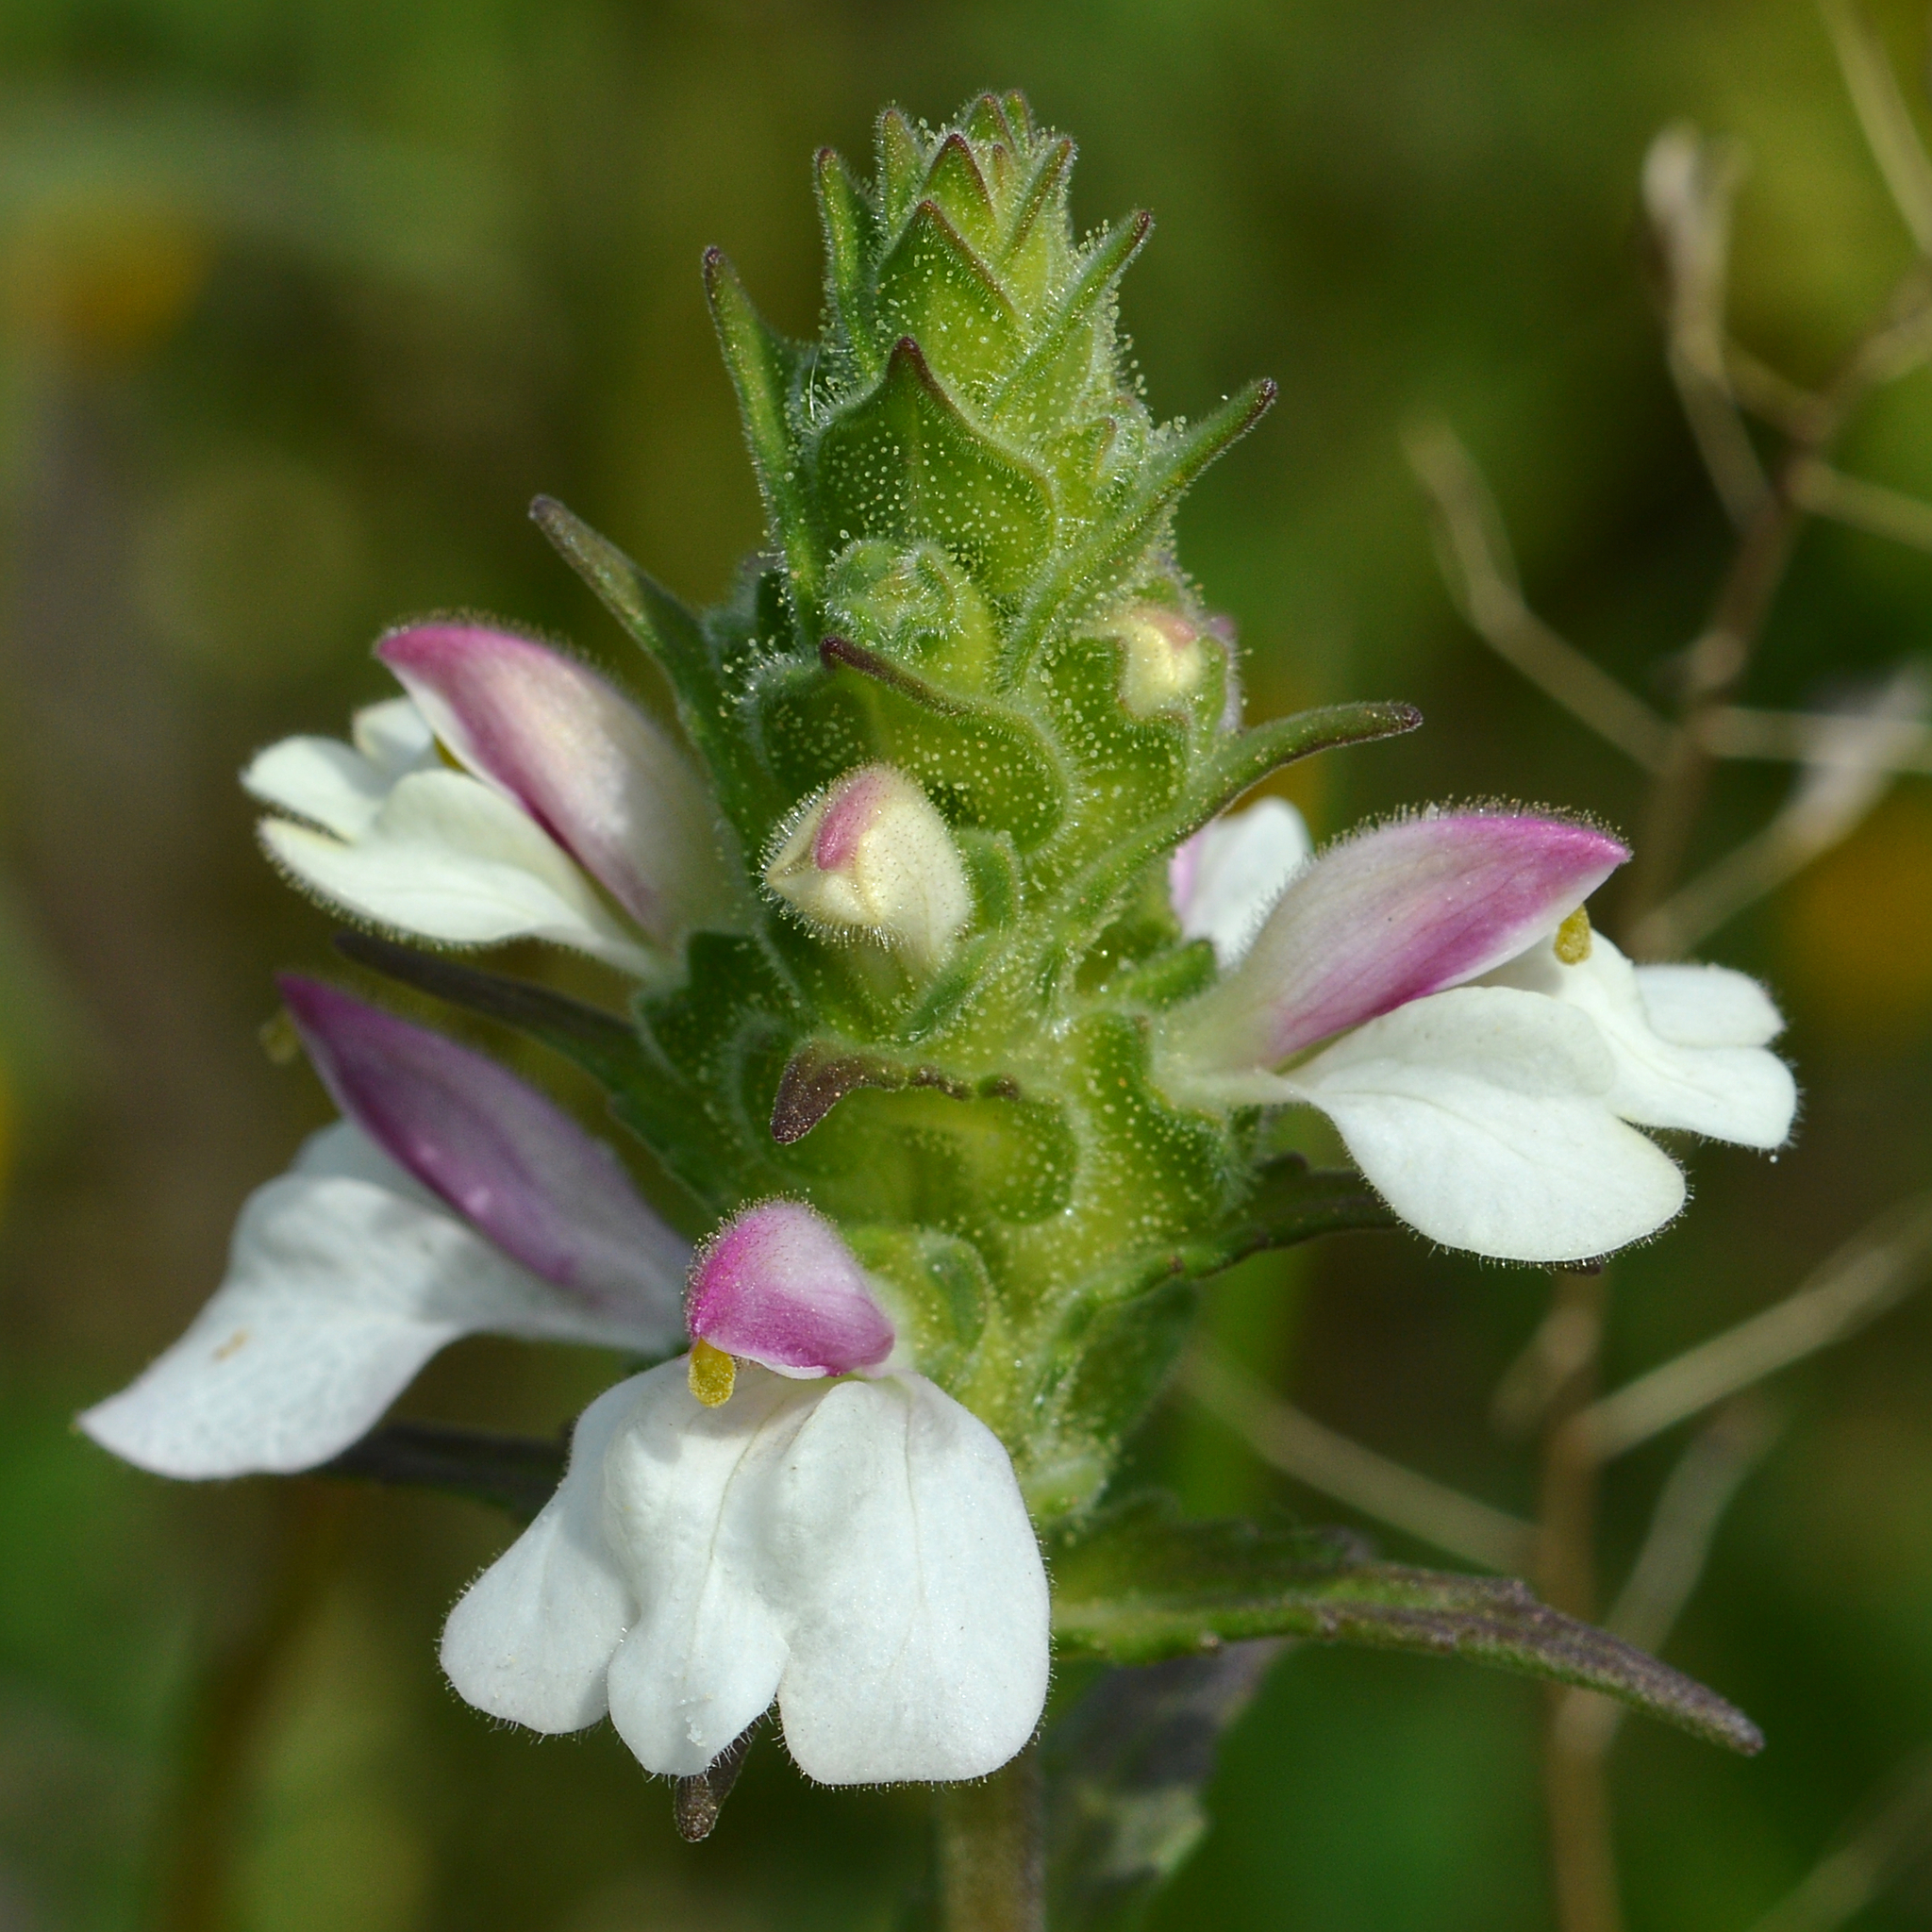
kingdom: Plantae
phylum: Tracheophyta
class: Magnoliopsida
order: Lamiales
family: Orobanchaceae
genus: Bellardia
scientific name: Bellardia trixago
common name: Mediterranean lineseed
